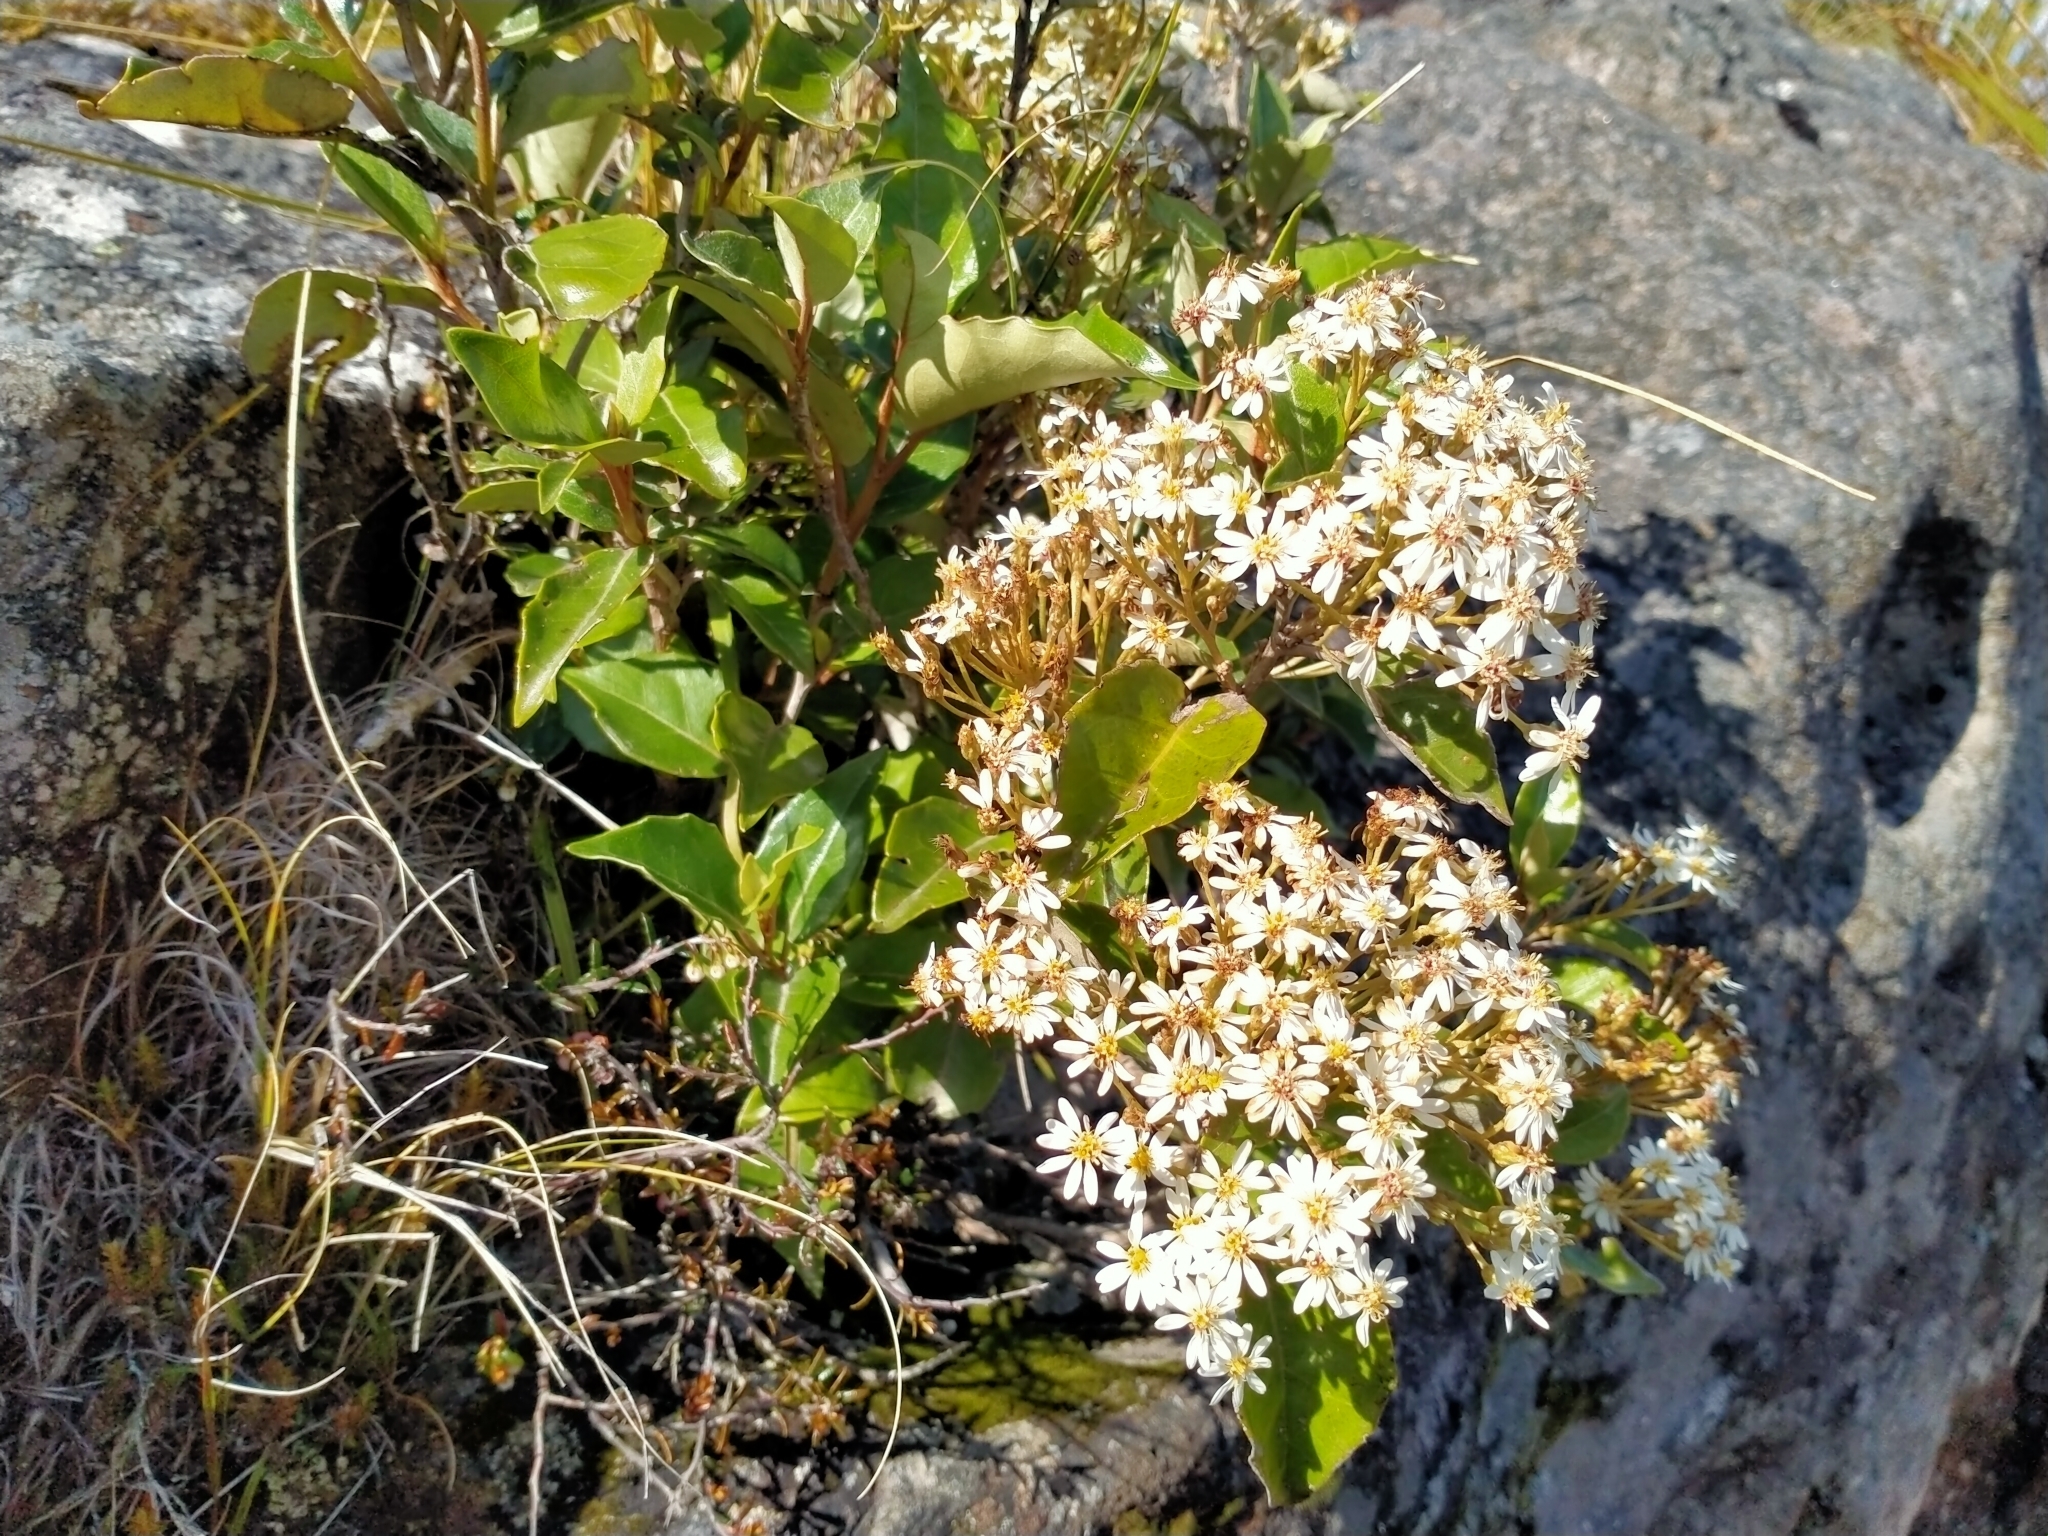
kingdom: Plantae
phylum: Tracheophyta
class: Magnoliopsida
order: Asterales
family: Asteraceae
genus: Olearia
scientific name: Olearia arborescens
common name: Glossy tree daisy
